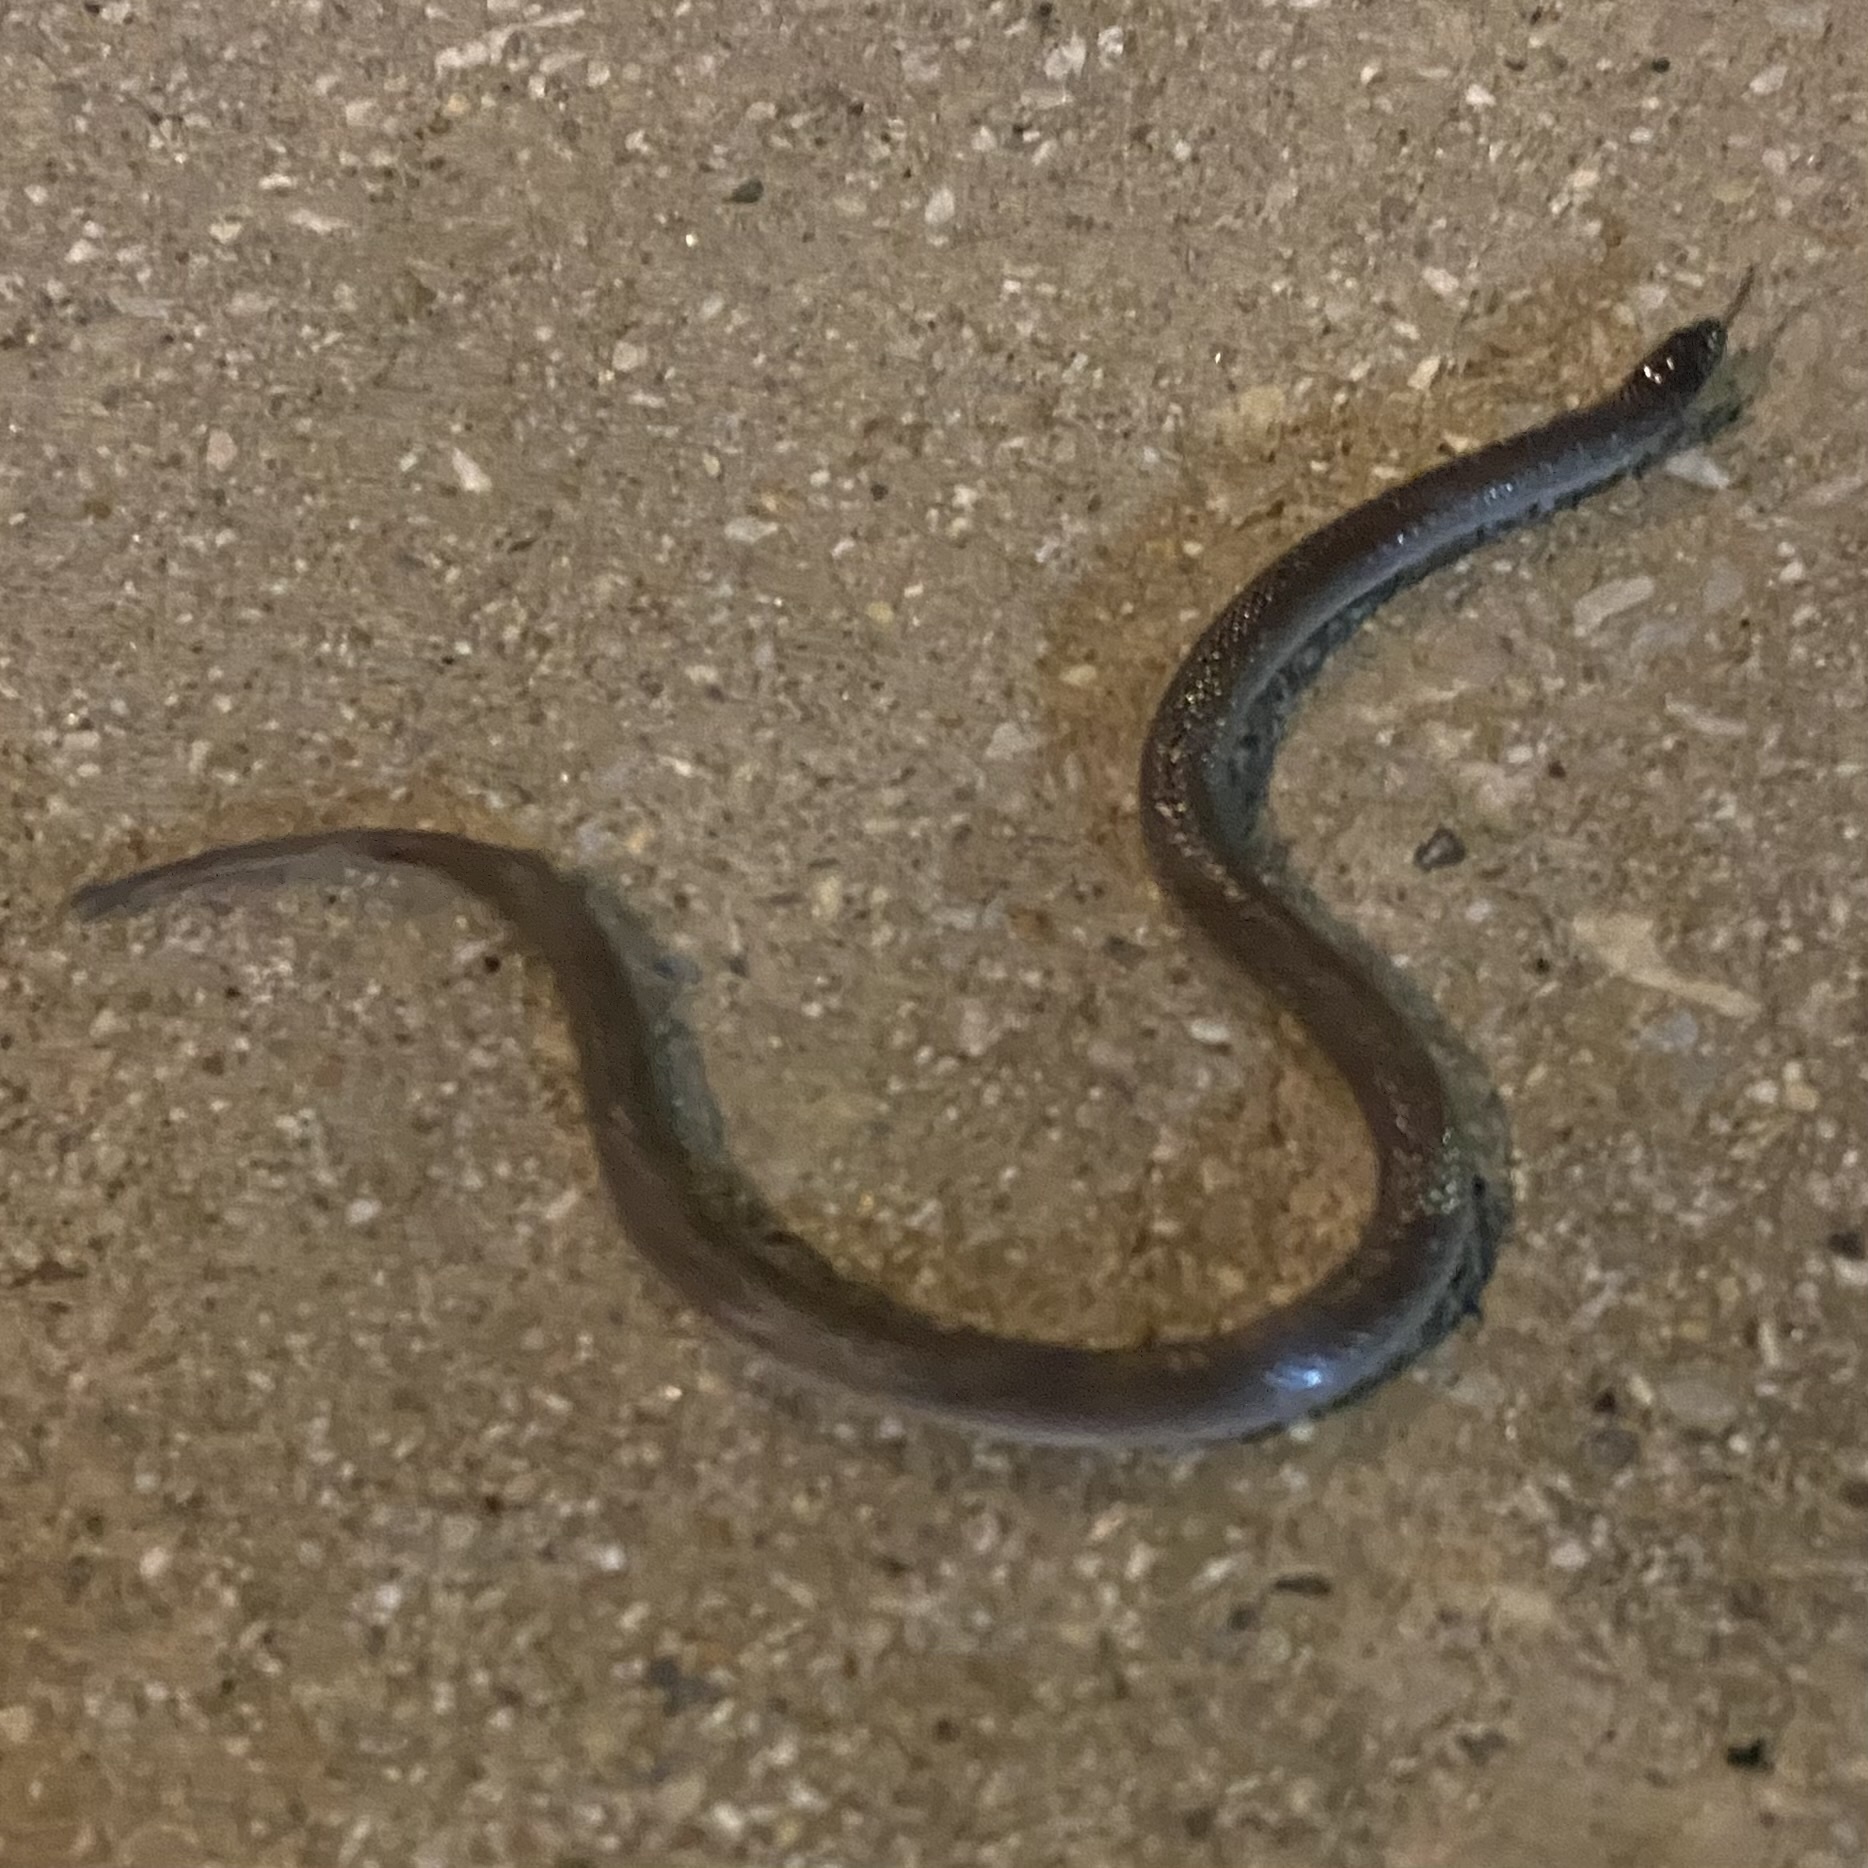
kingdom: Animalia
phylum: Chordata
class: Squamata
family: Colubridae
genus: Haldea
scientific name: Haldea striatula
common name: Rough earth snake
